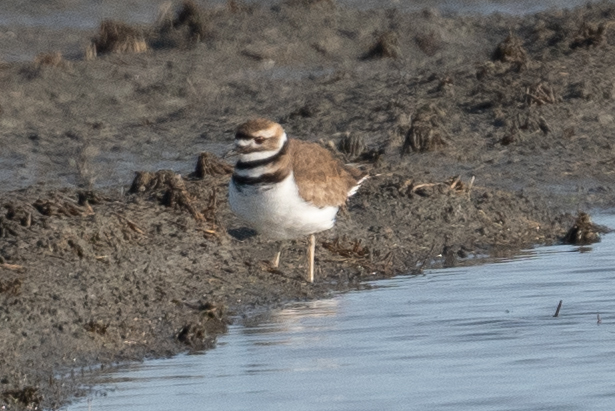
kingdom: Animalia
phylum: Chordata
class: Aves
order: Charadriiformes
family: Charadriidae
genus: Charadrius
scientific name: Charadrius vociferus
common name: Killdeer
